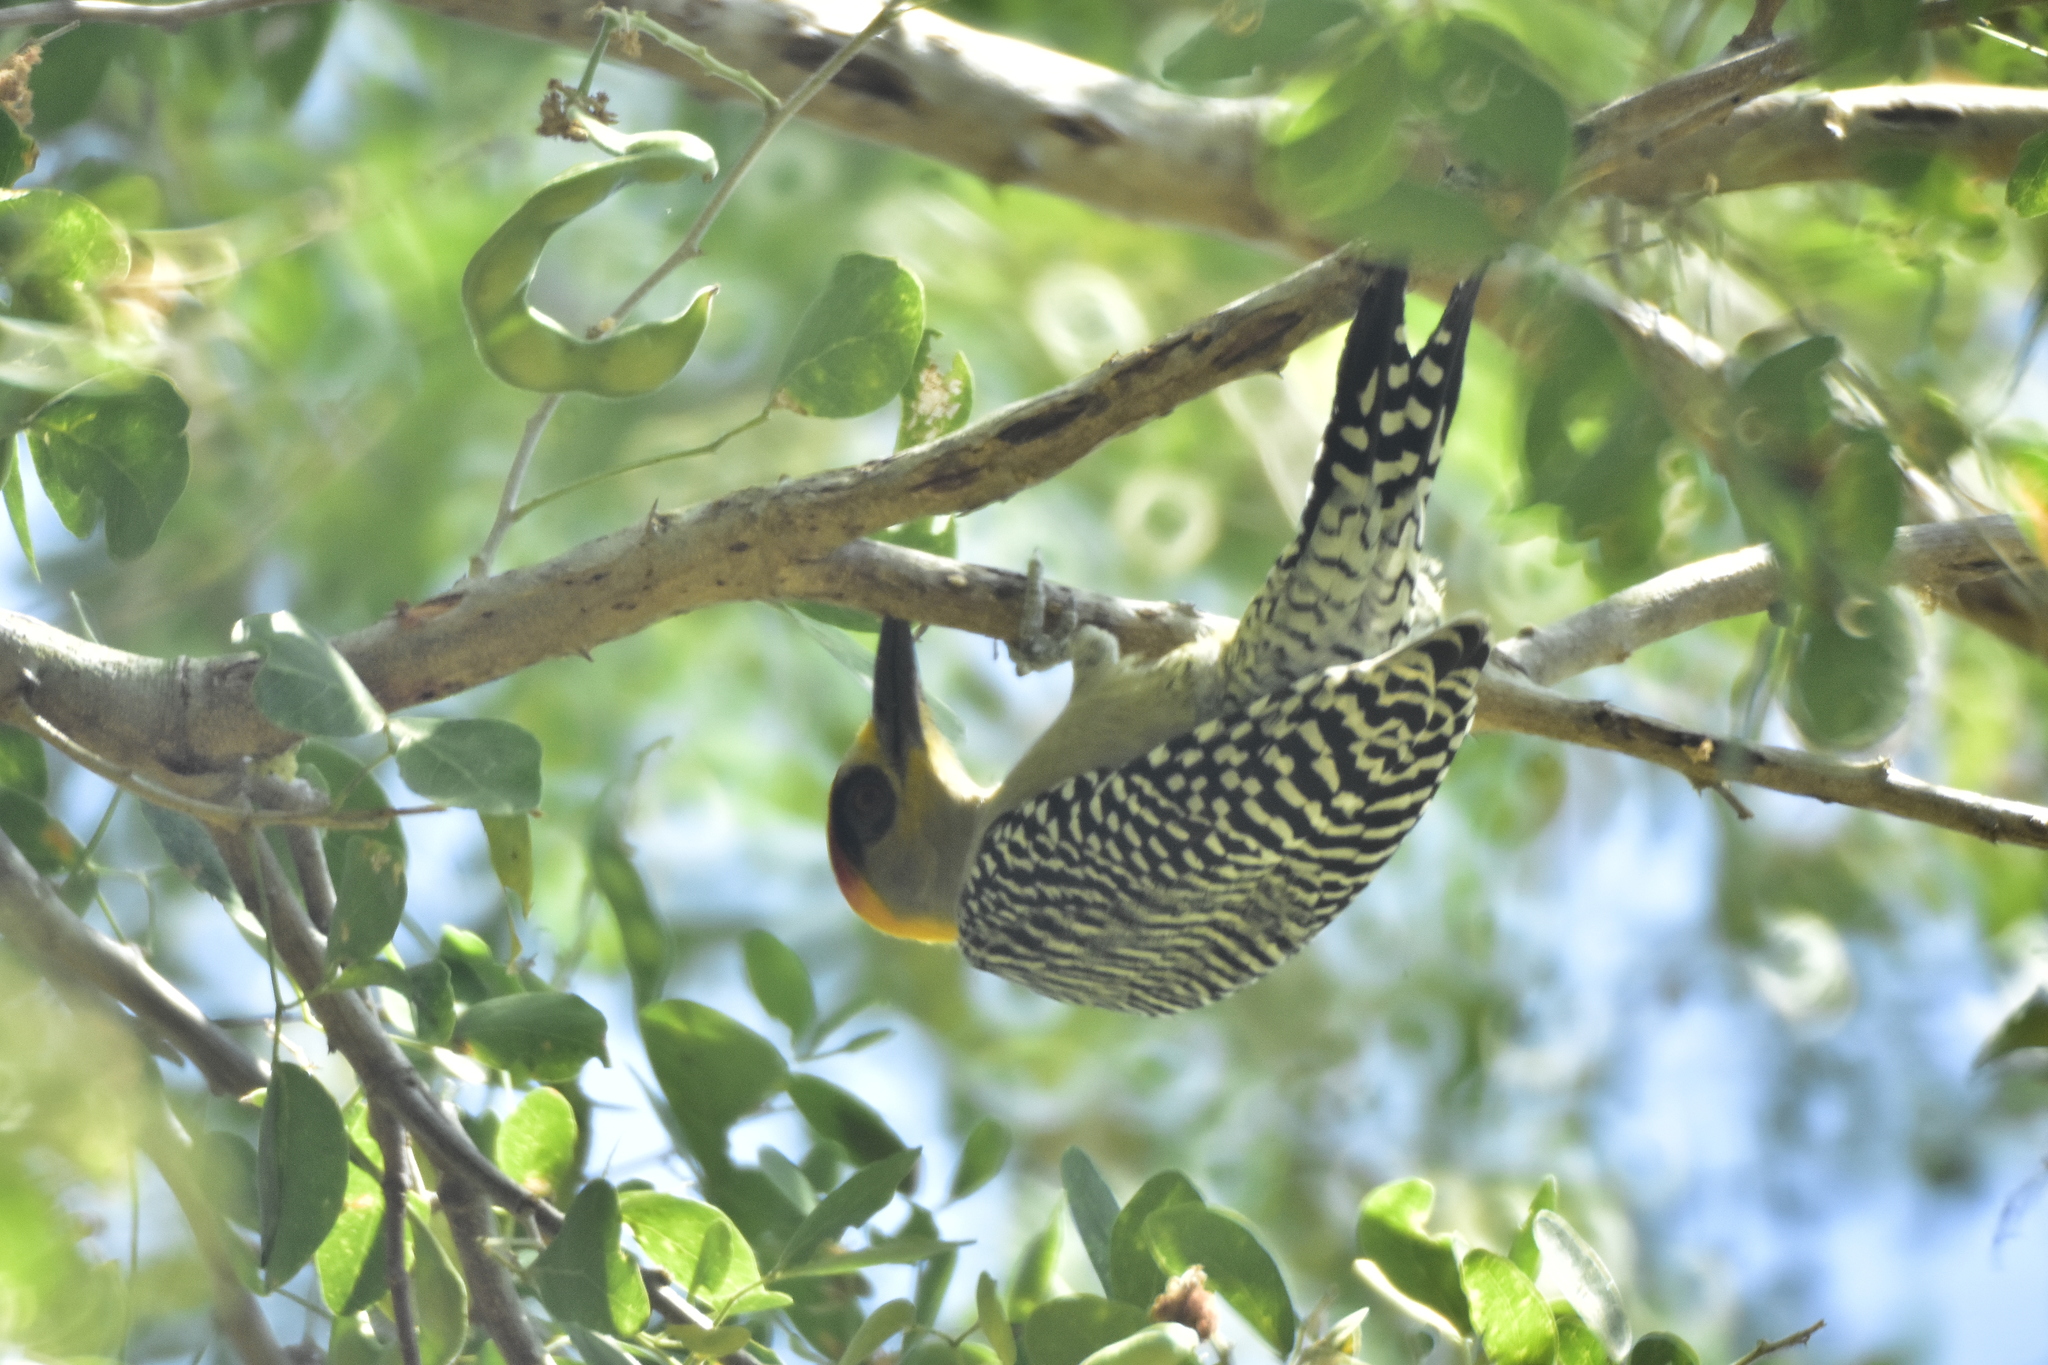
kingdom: Animalia
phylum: Chordata
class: Aves
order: Piciformes
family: Picidae
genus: Melanerpes
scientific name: Melanerpes chrysogenys
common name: Golden-cheeked woodpecker
